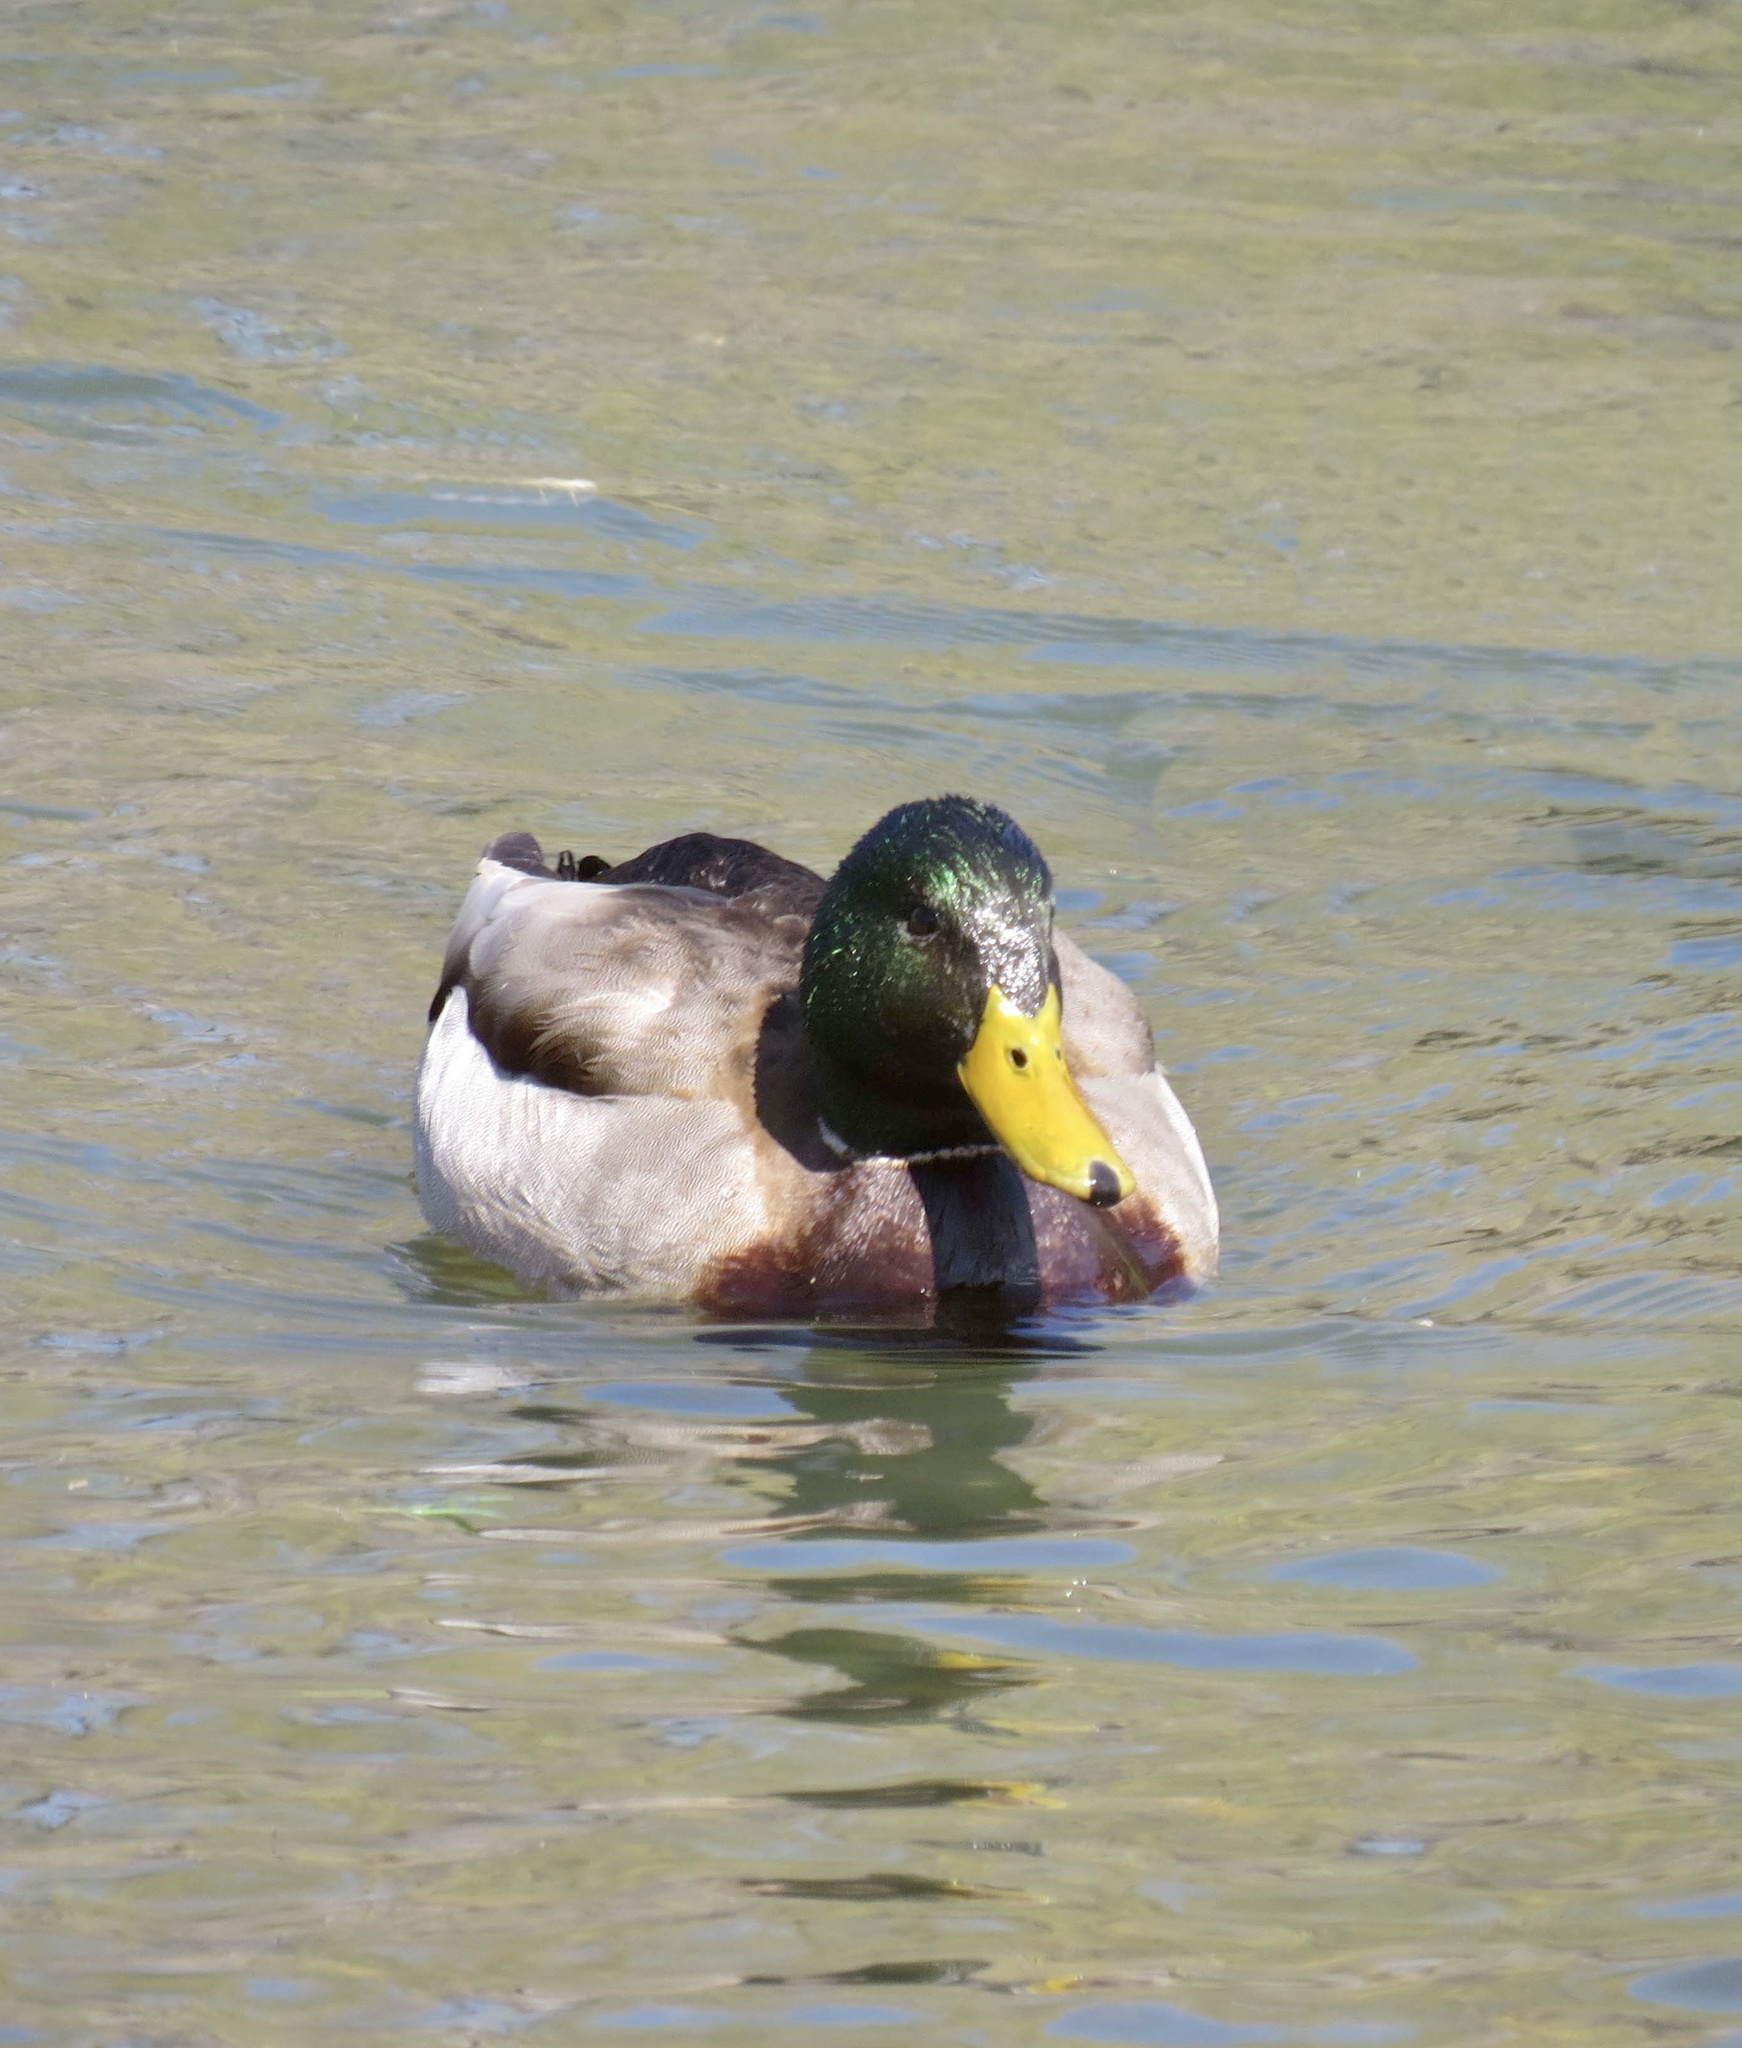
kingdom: Animalia
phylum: Chordata
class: Aves
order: Anseriformes
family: Anatidae
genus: Anas
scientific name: Anas platyrhynchos
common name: Mallard
